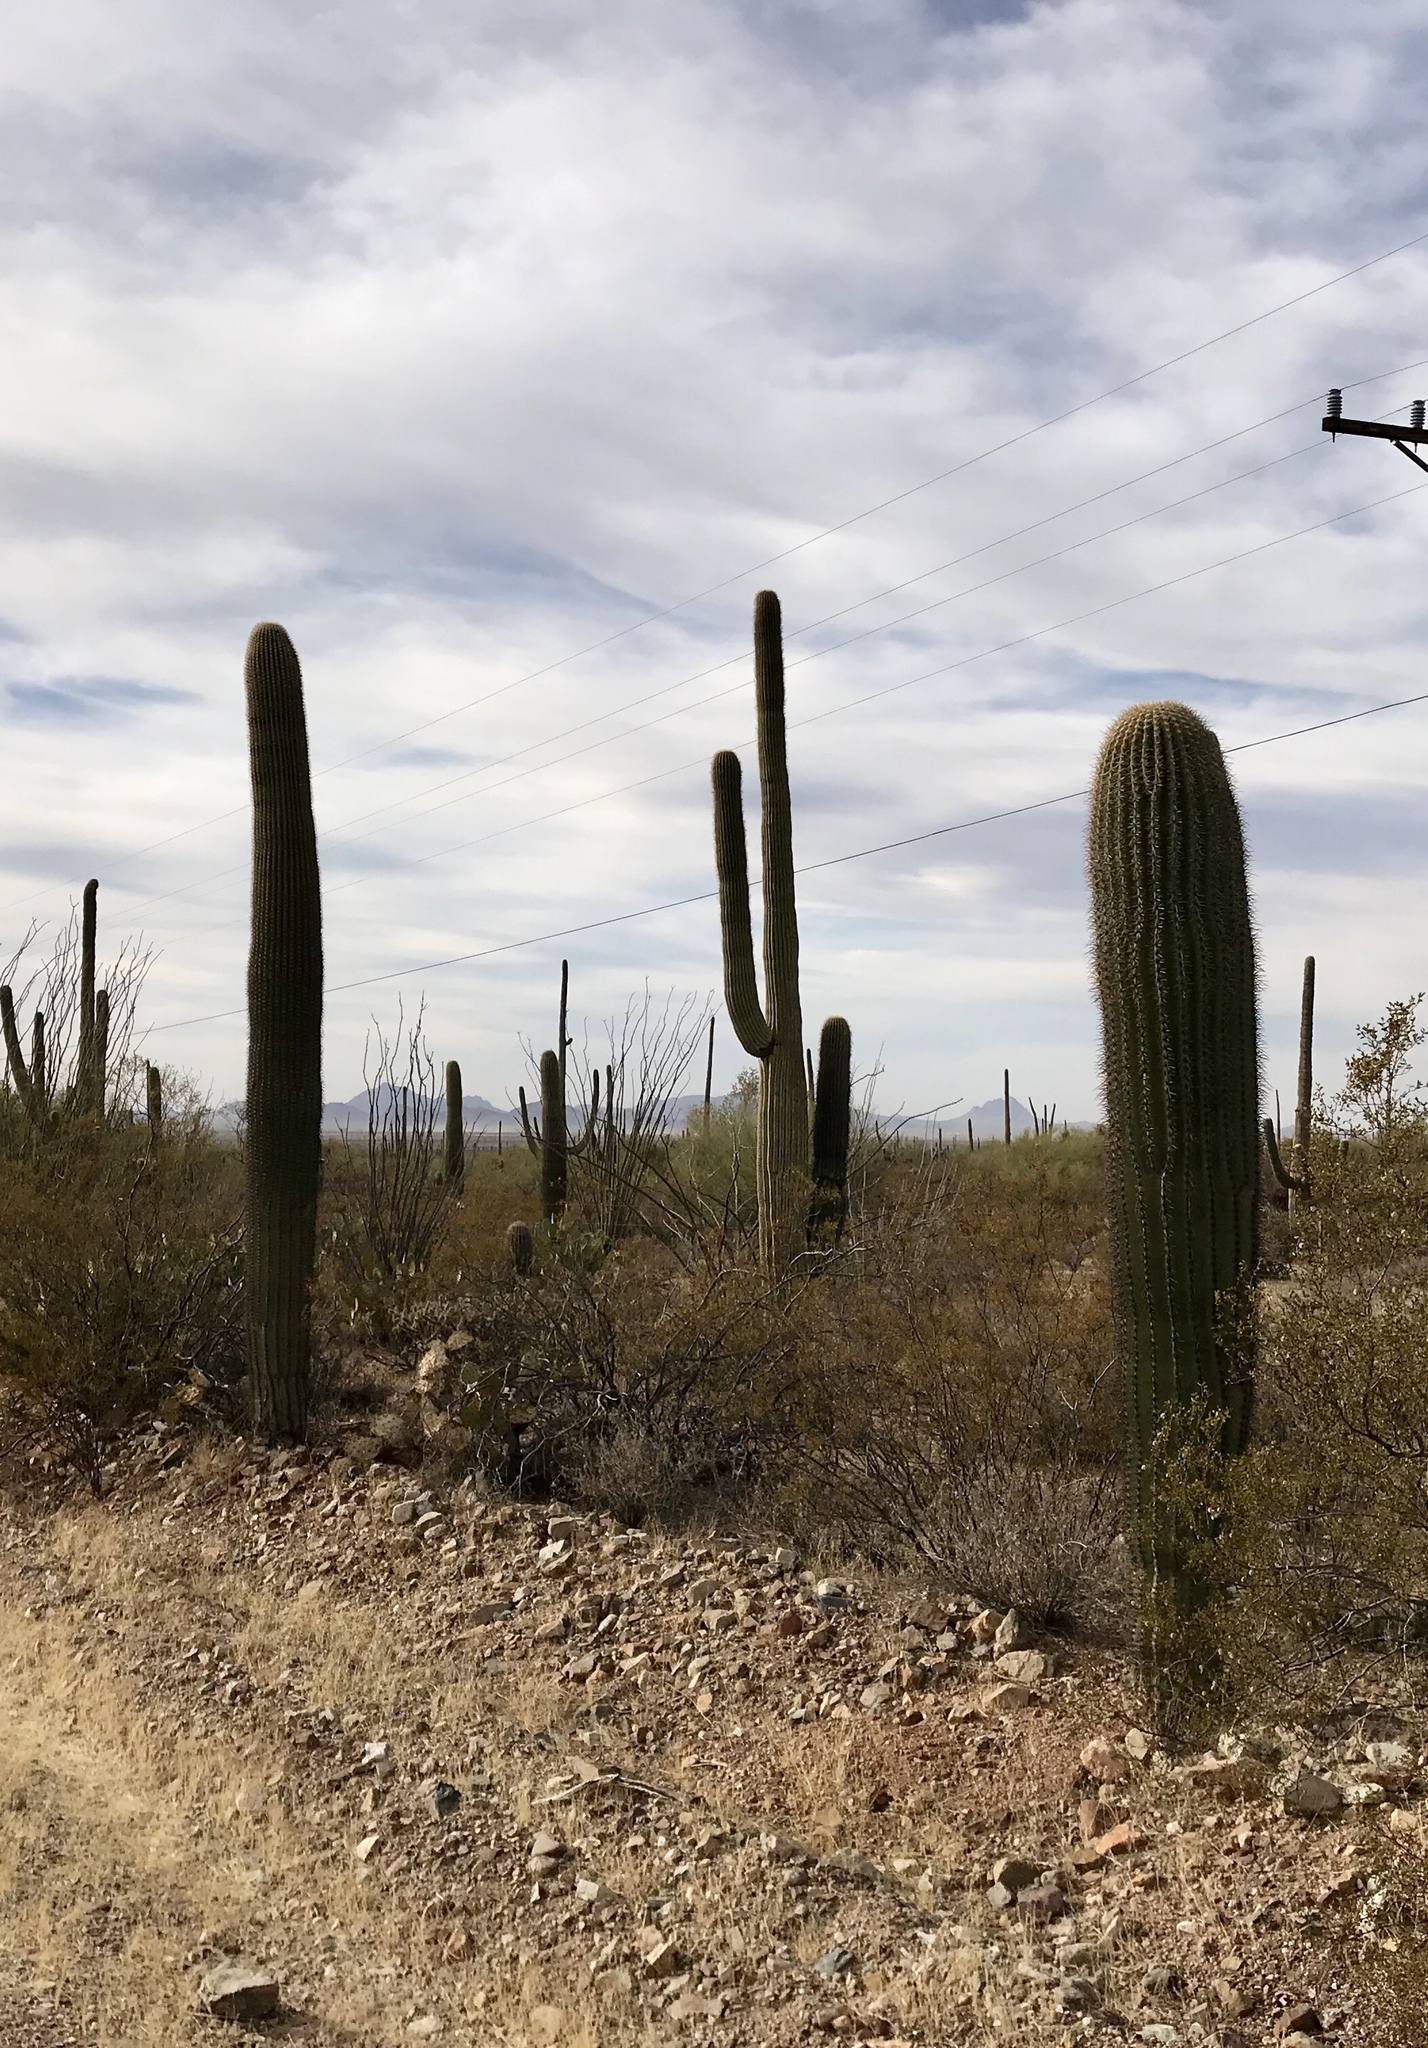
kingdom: Plantae
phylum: Tracheophyta
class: Magnoliopsida
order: Caryophyllales
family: Cactaceae
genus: Carnegiea
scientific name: Carnegiea gigantea
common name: Saguaro
